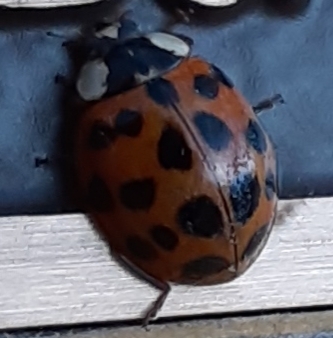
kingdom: Animalia
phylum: Arthropoda
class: Insecta
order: Coleoptera
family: Coccinellidae
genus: Harmonia
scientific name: Harmonia axyridis
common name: Harlequin ladybird
